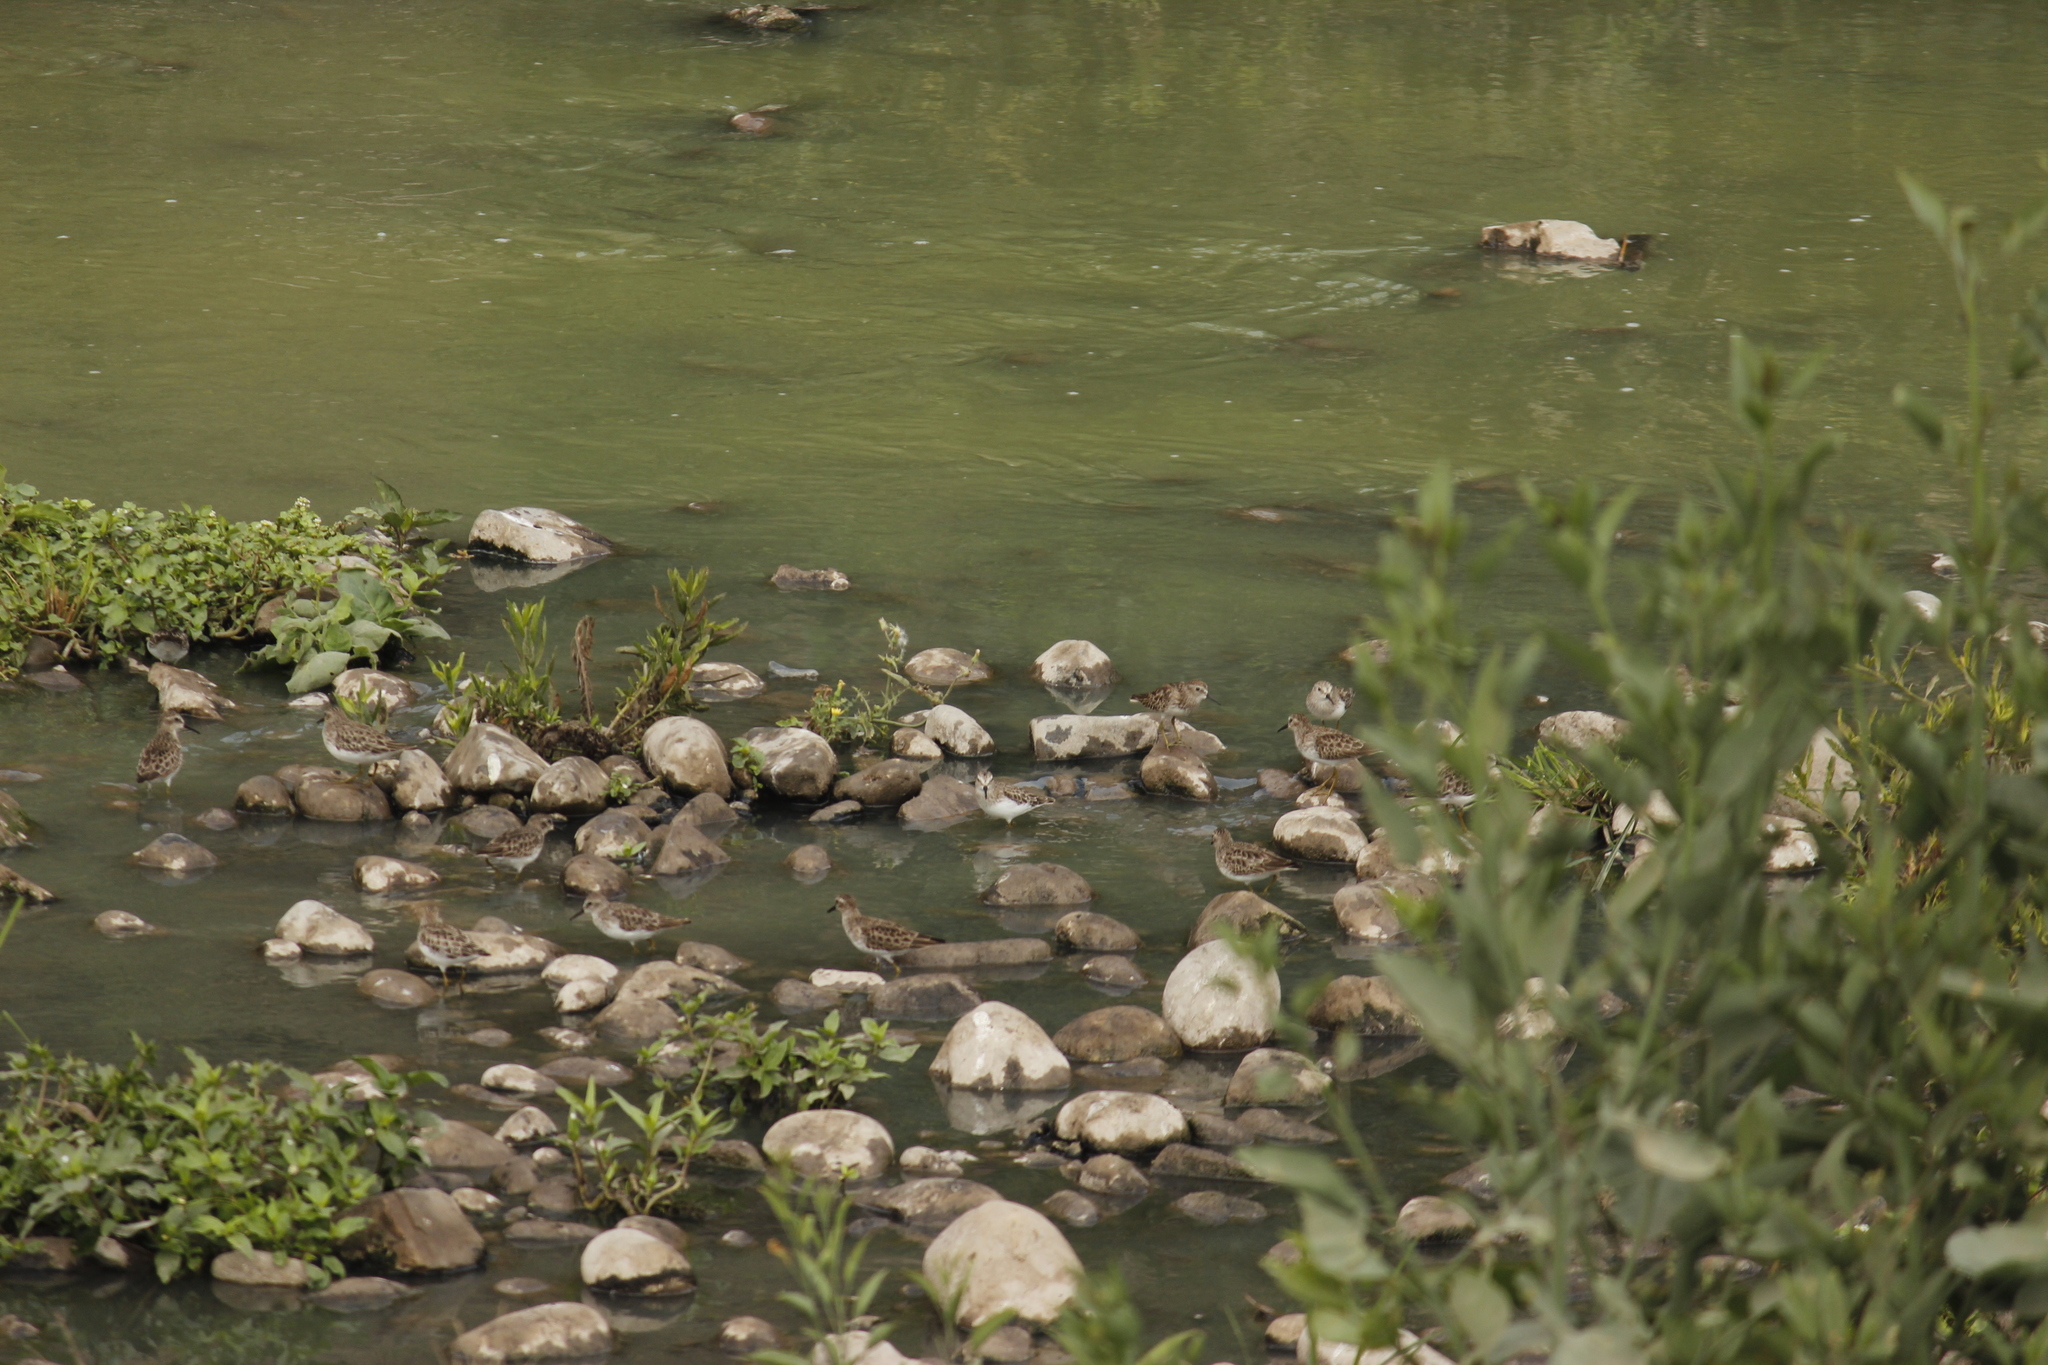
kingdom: Animalia
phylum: Chordata
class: Aves
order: Charadriiformes
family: Scolopacidae
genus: Calidris
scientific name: Calidris minutilla
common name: Least sandpiper
